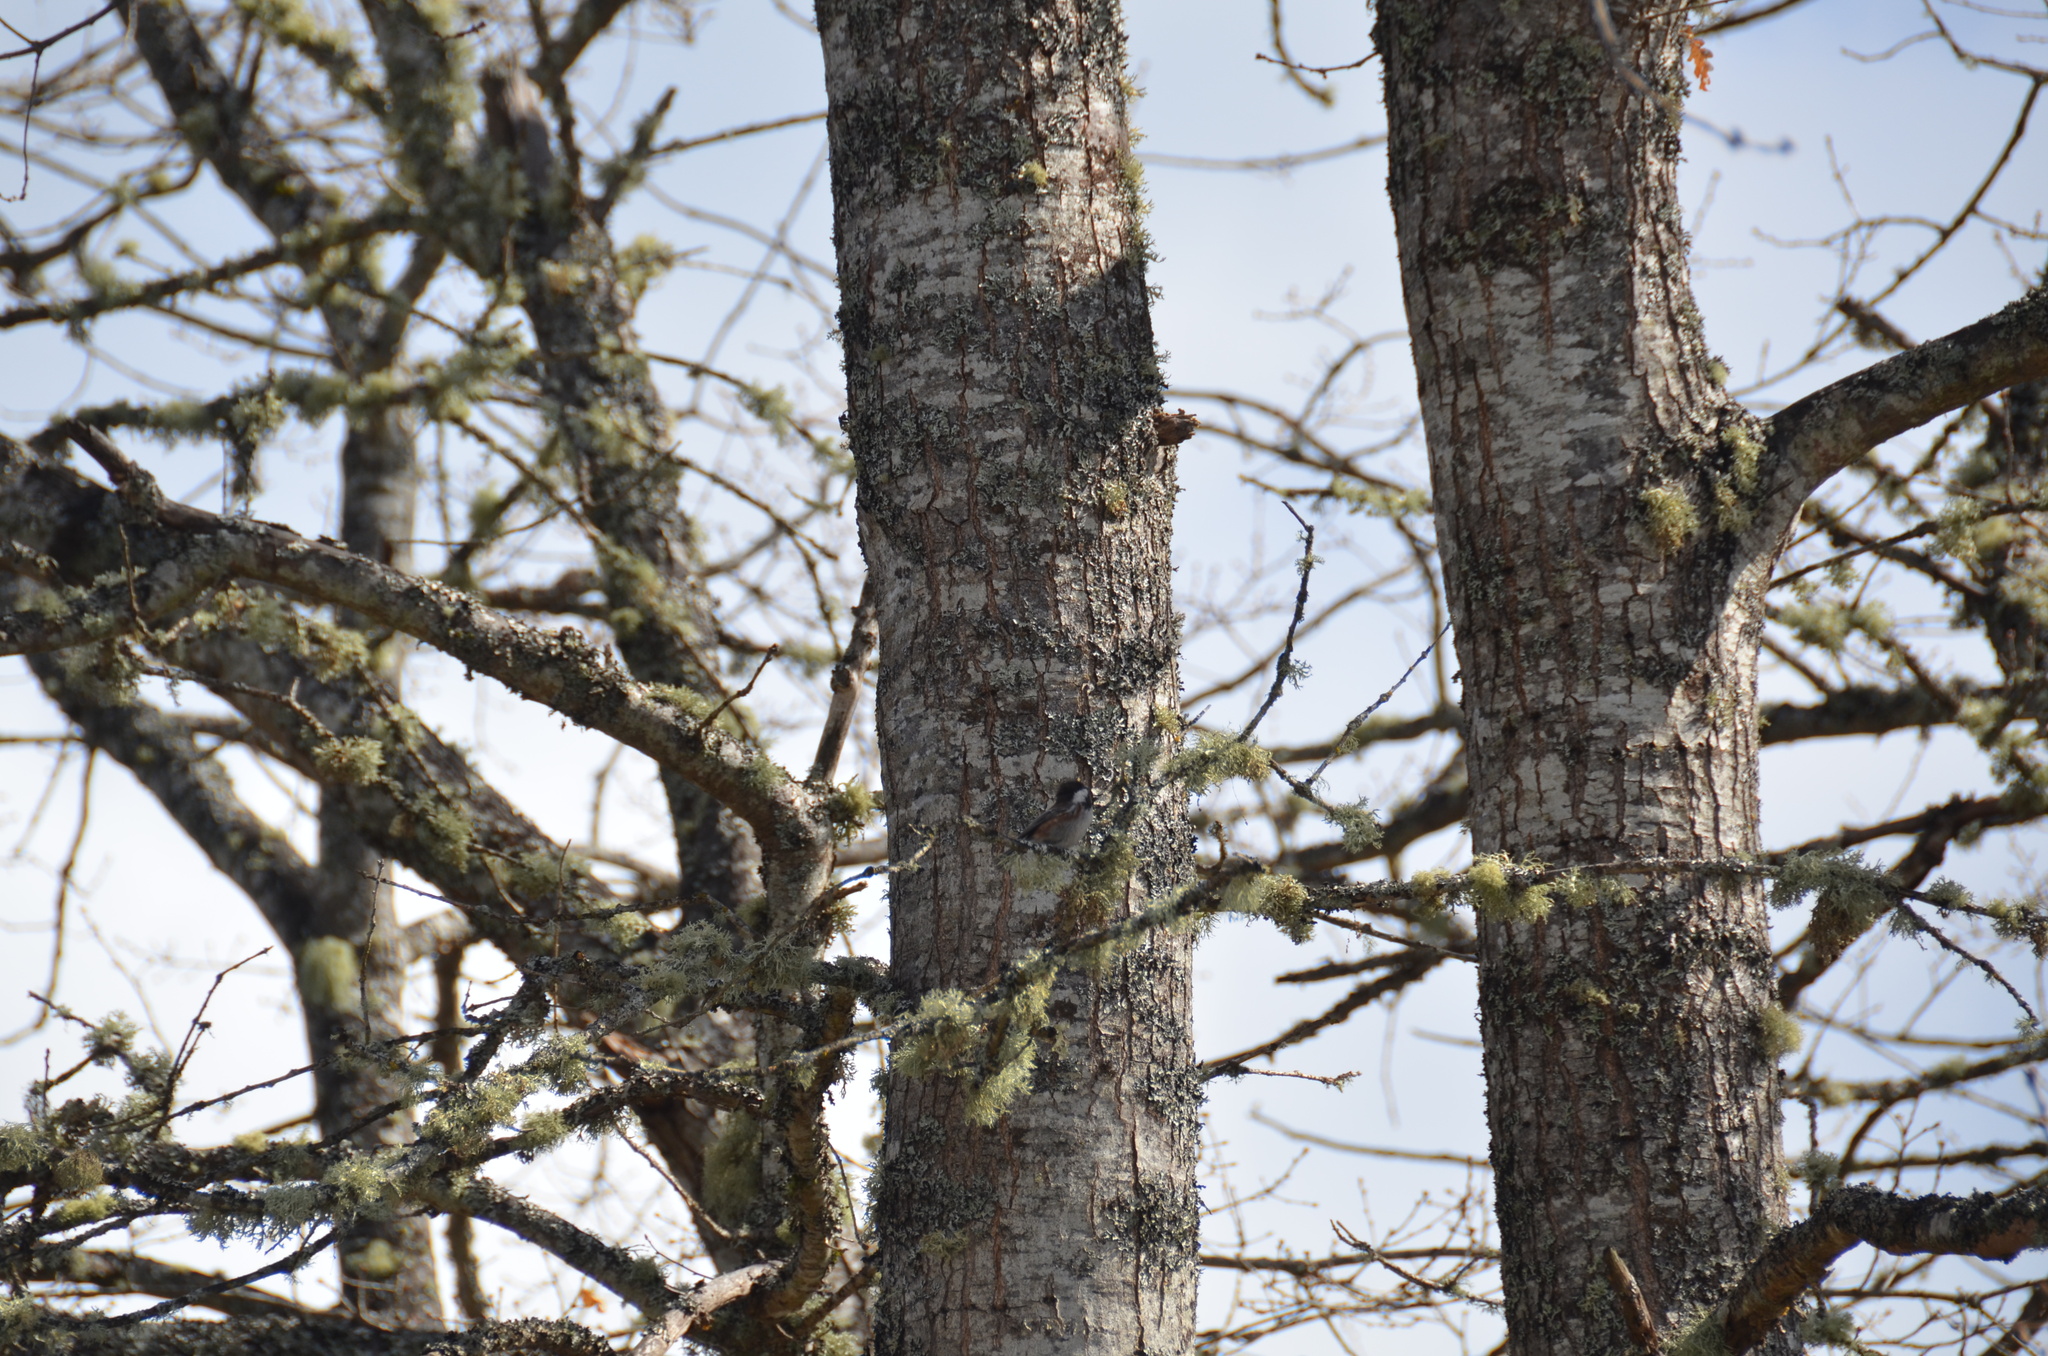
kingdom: Animalia
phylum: Chordata
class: Aves
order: Passeriformes
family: Paridae
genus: Poecile
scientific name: Poecile rufescens
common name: Chestnut-backed chickadee
